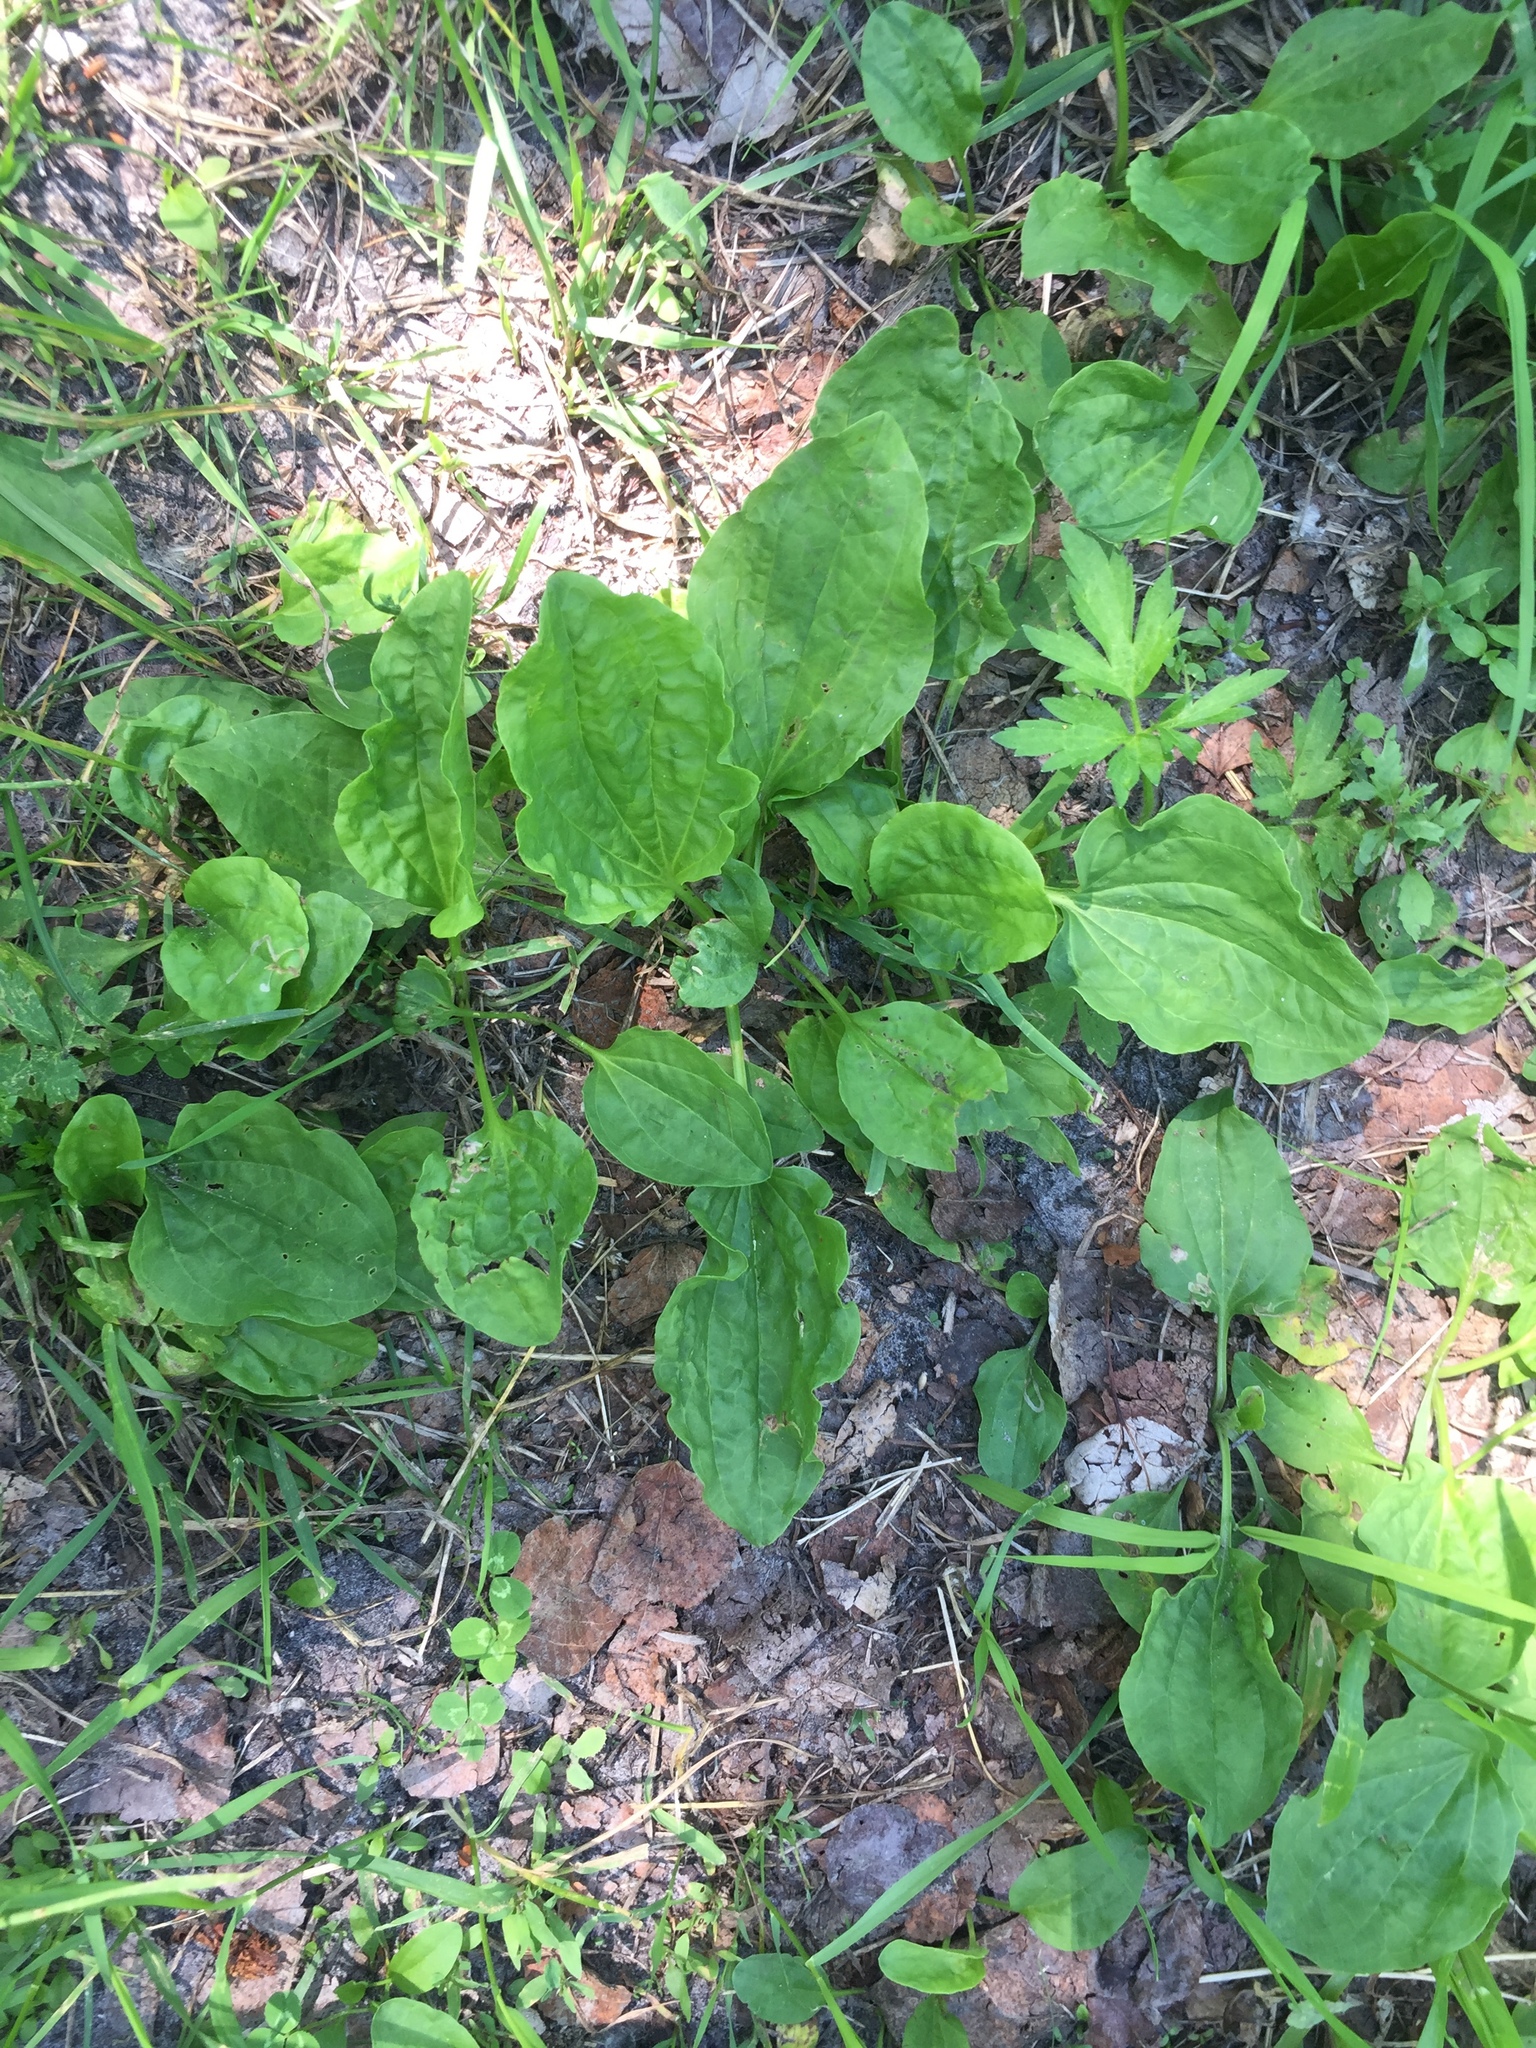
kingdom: Plantae
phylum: Tracheophyta
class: Magnoliopsida
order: Lamiales
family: Plantaginaceae
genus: Plantago
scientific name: Plantago major
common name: Common plantain
